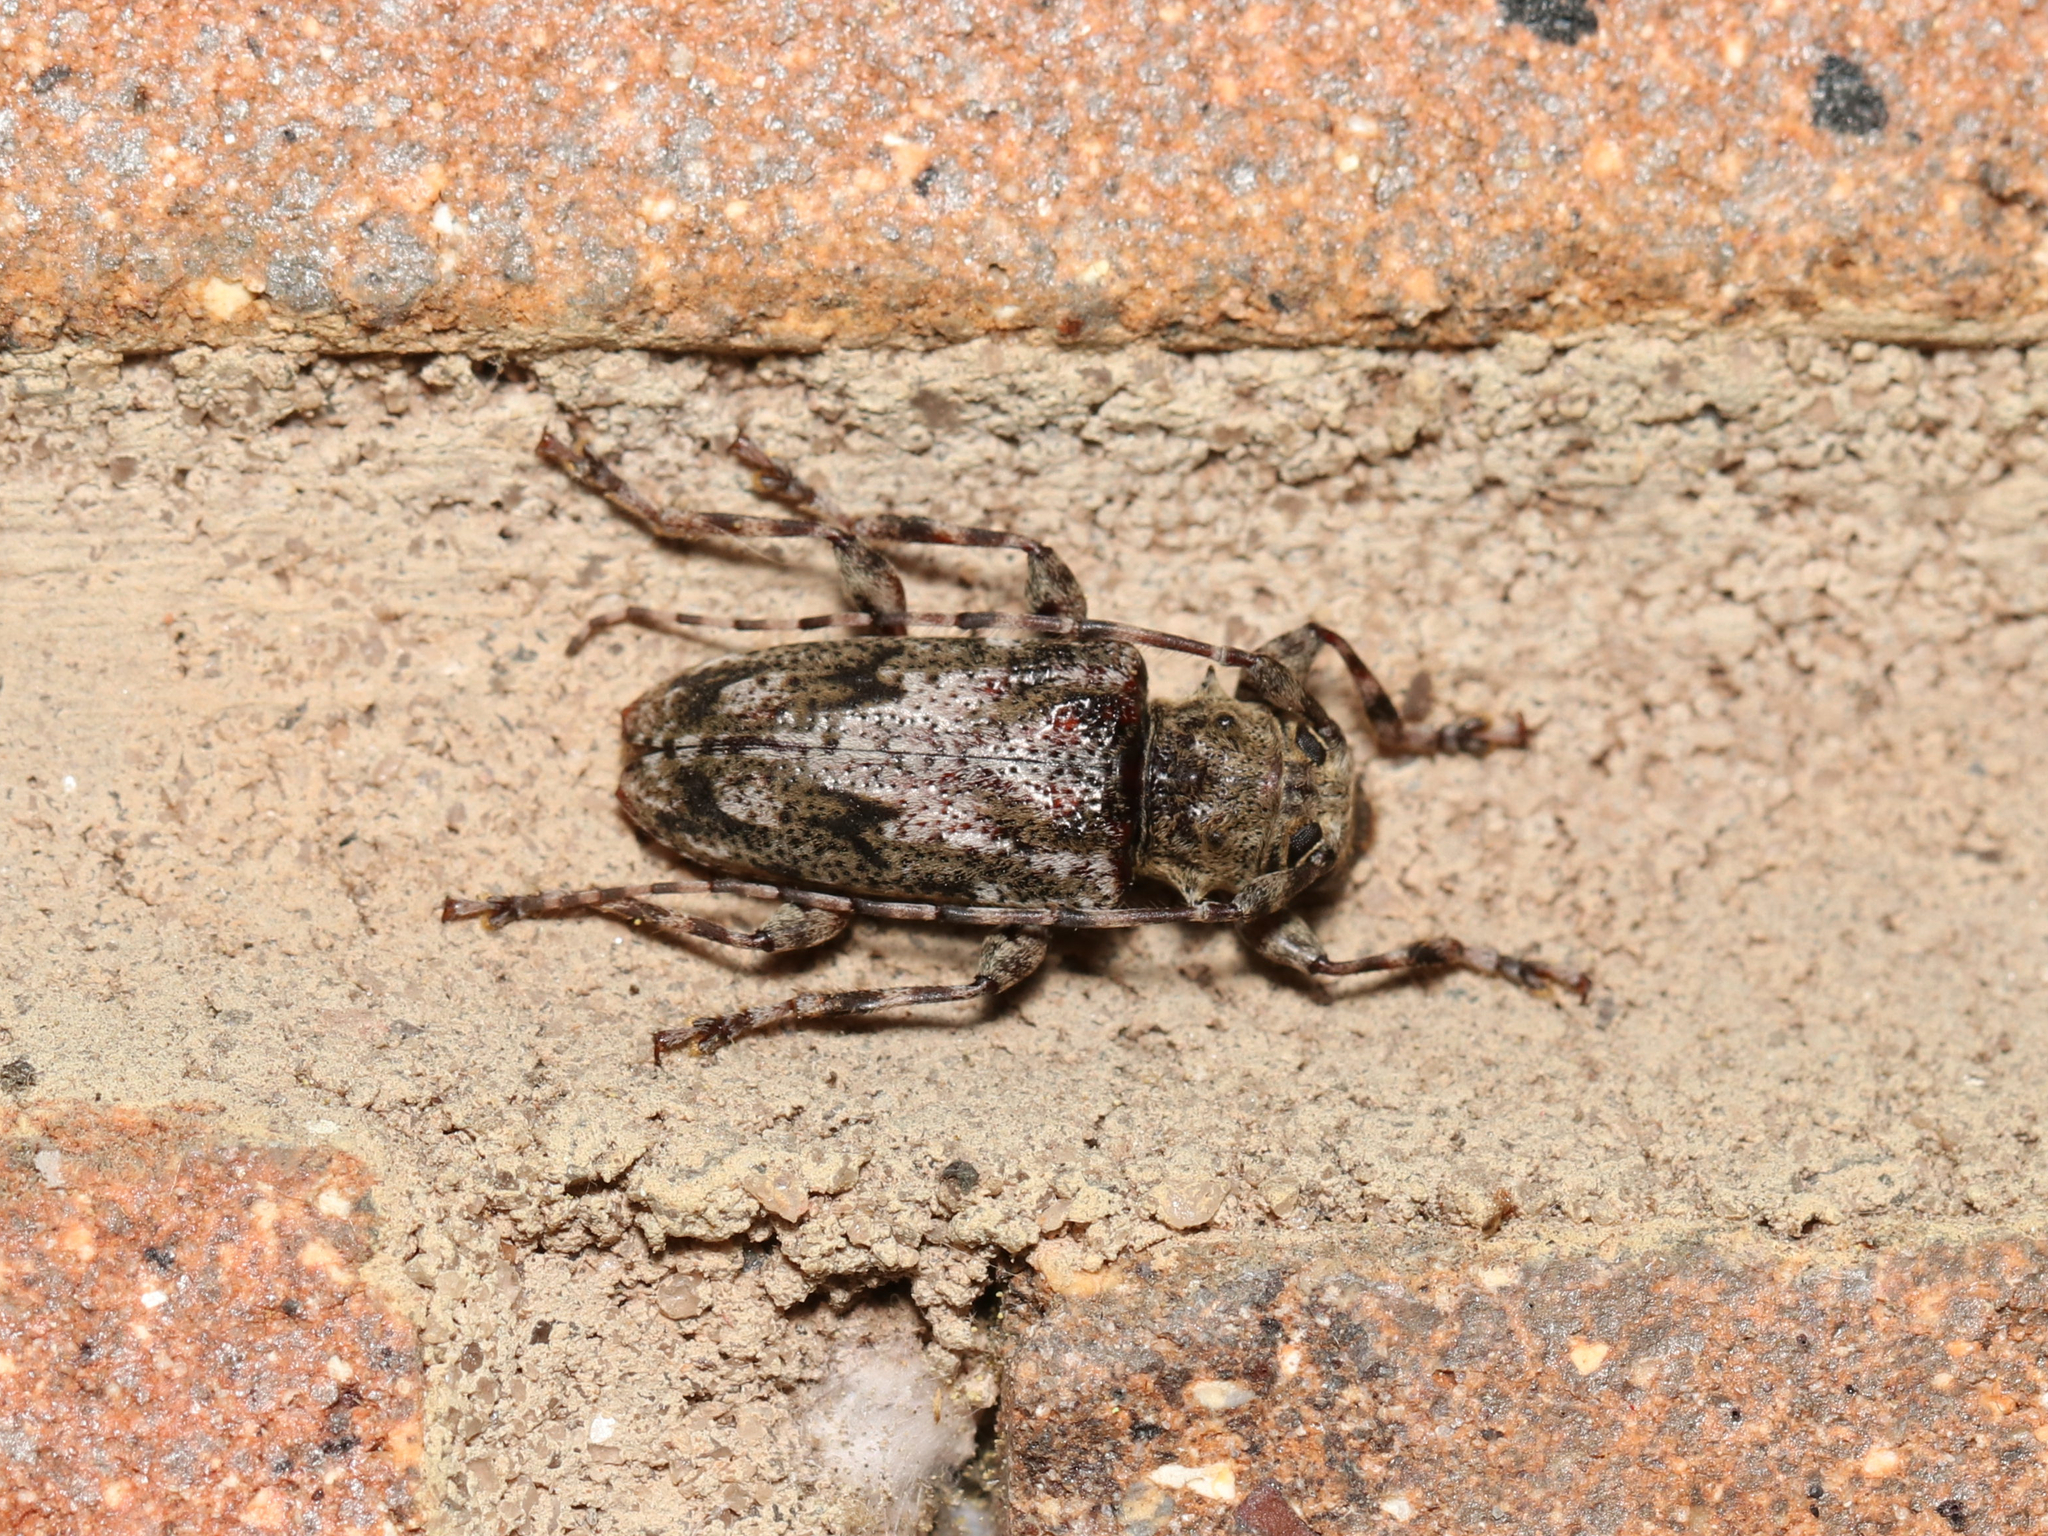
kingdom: Animalia
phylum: Arthropoda
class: Insecta
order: Coleoptera
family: Cerambycidae
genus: Aegomorphus
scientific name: Aegomorphus modestus
